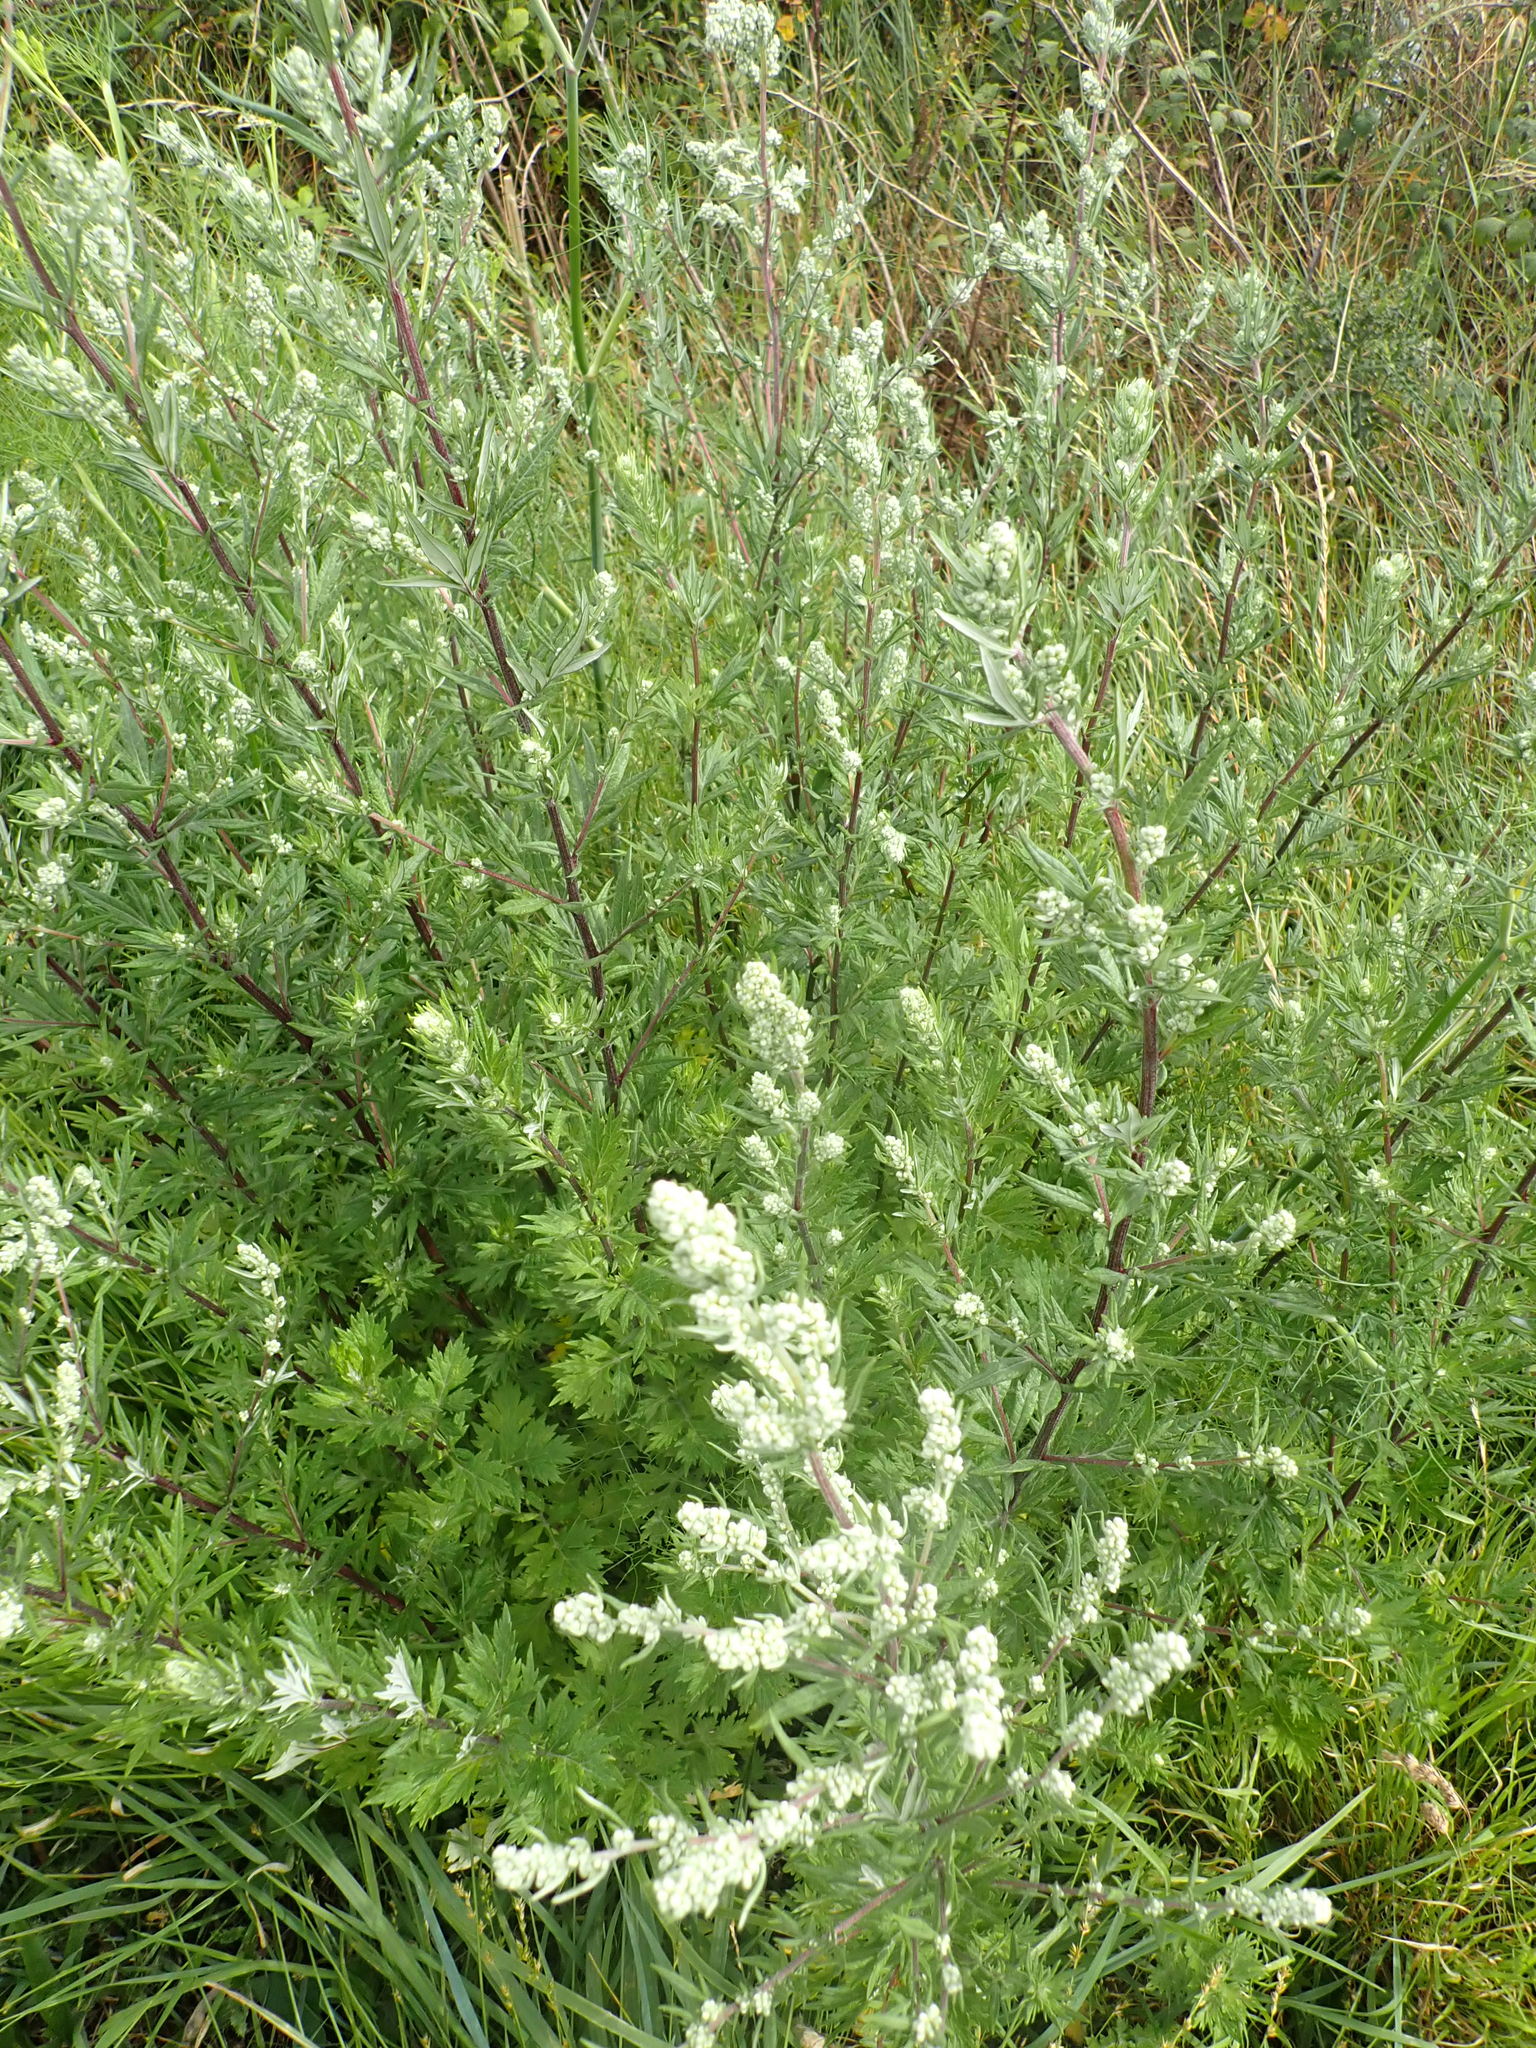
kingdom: Plantae
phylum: Tracheophyta
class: Magnoliopsida
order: Asterales
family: Asteraceae
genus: Artemisia
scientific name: Artemisia vulgaris
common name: Mugwort
